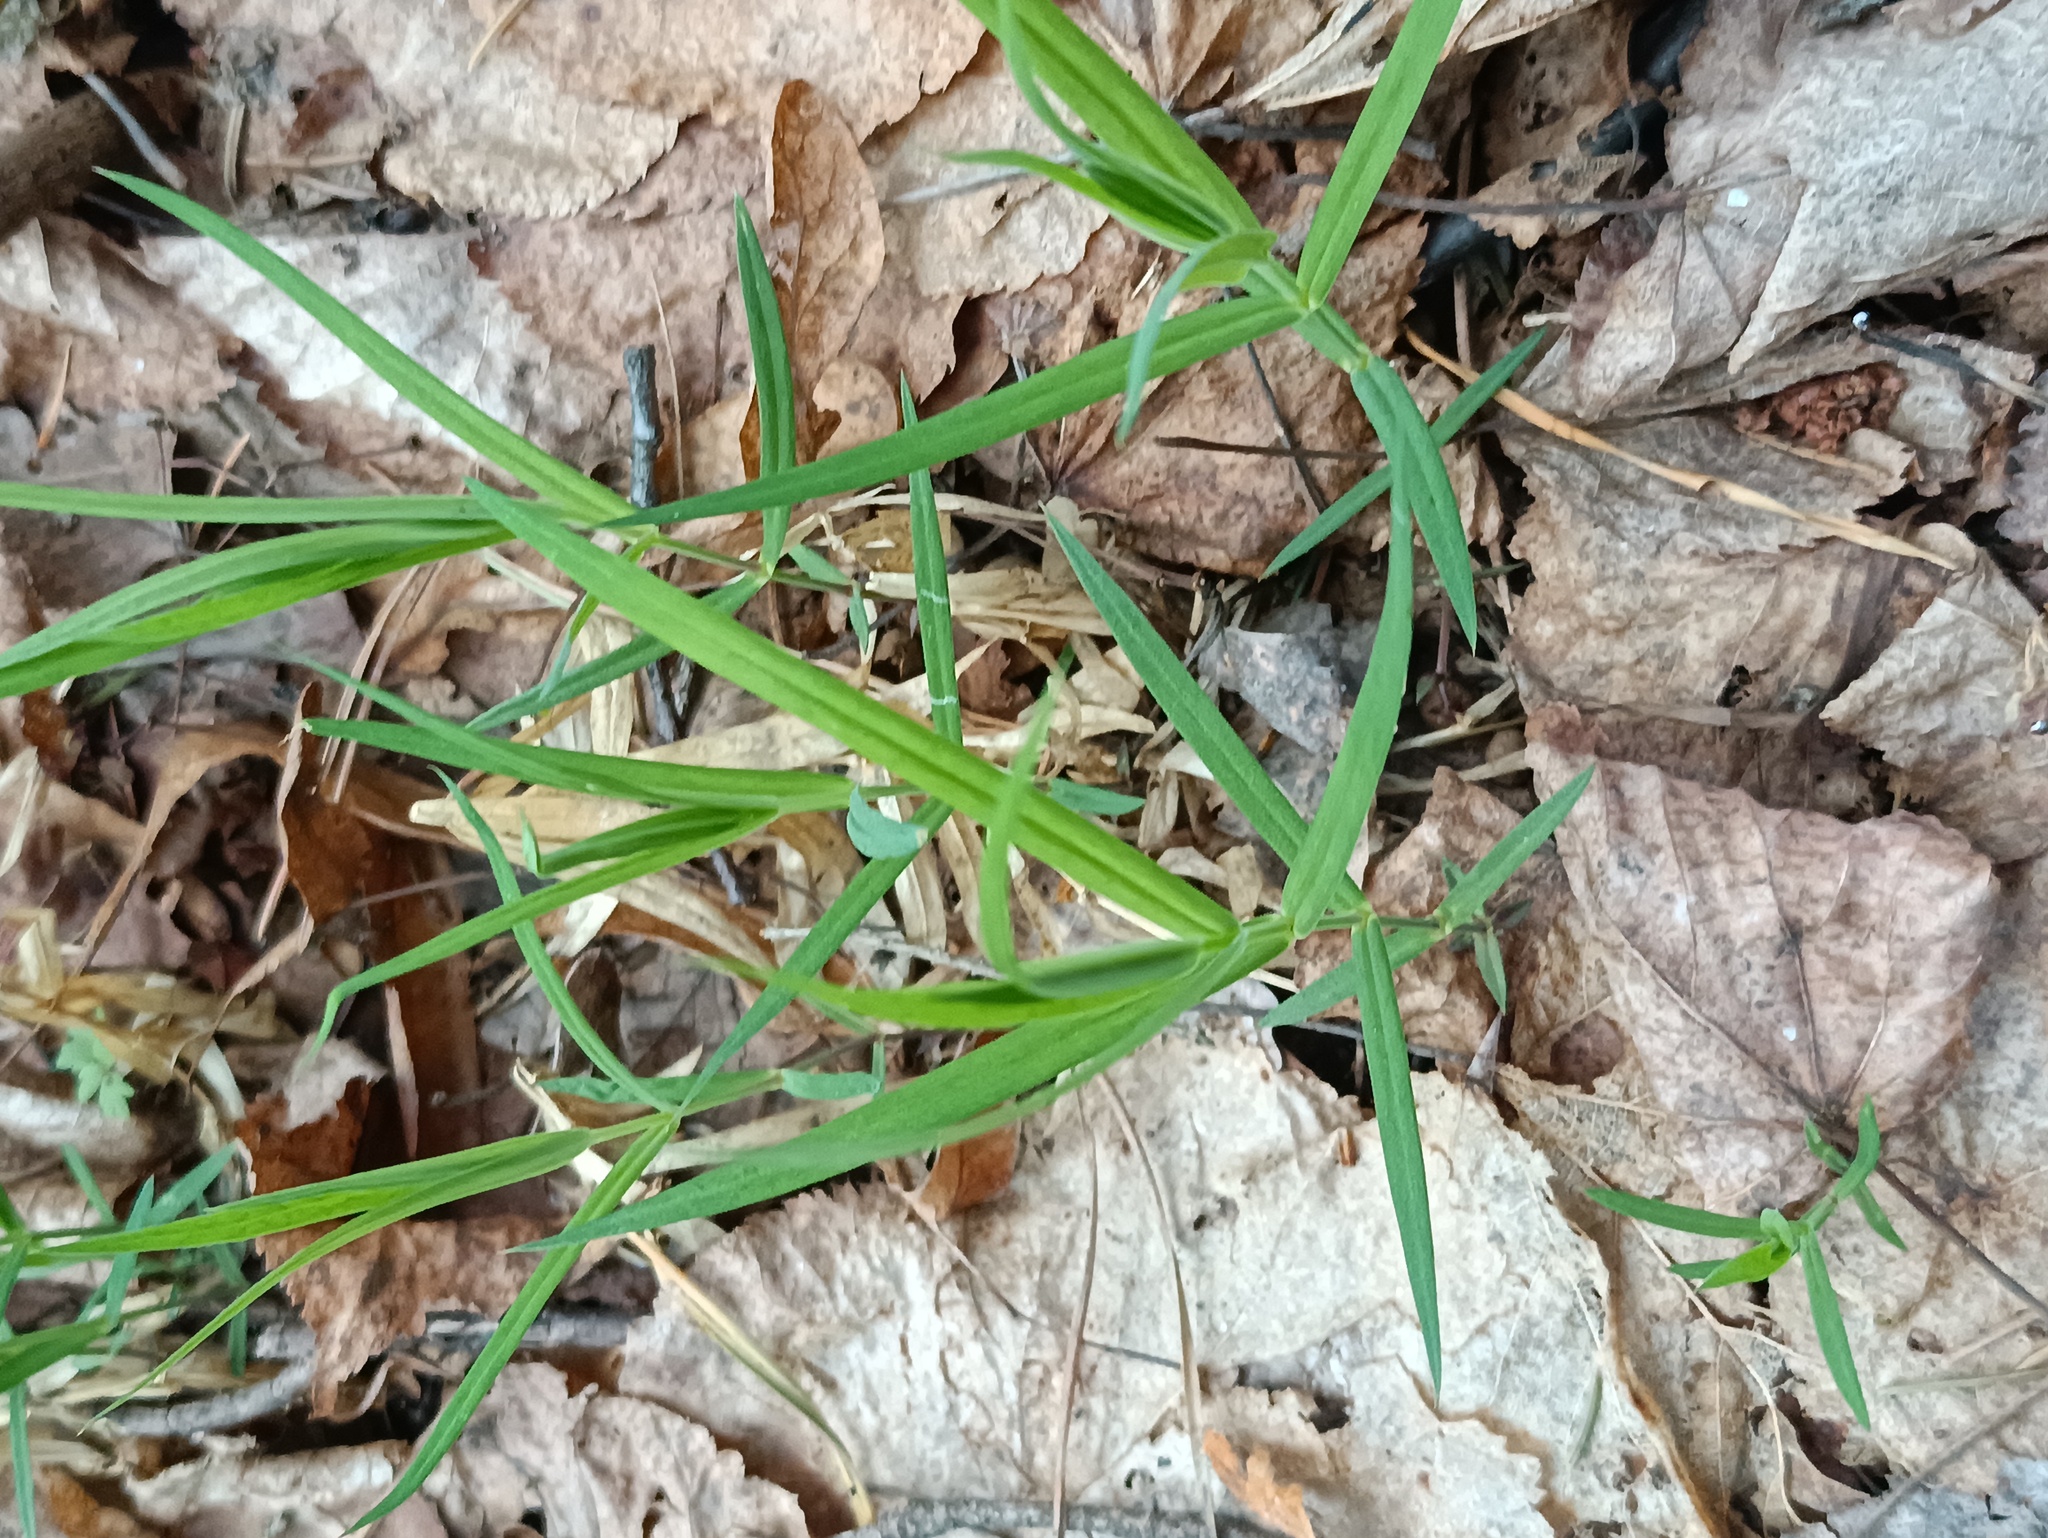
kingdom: Plantae
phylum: Tracheophyta
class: Magnoliopsida
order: Caryophyllales
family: Caryophyllaceae
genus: Rabelera
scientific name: Rabelera holostea
